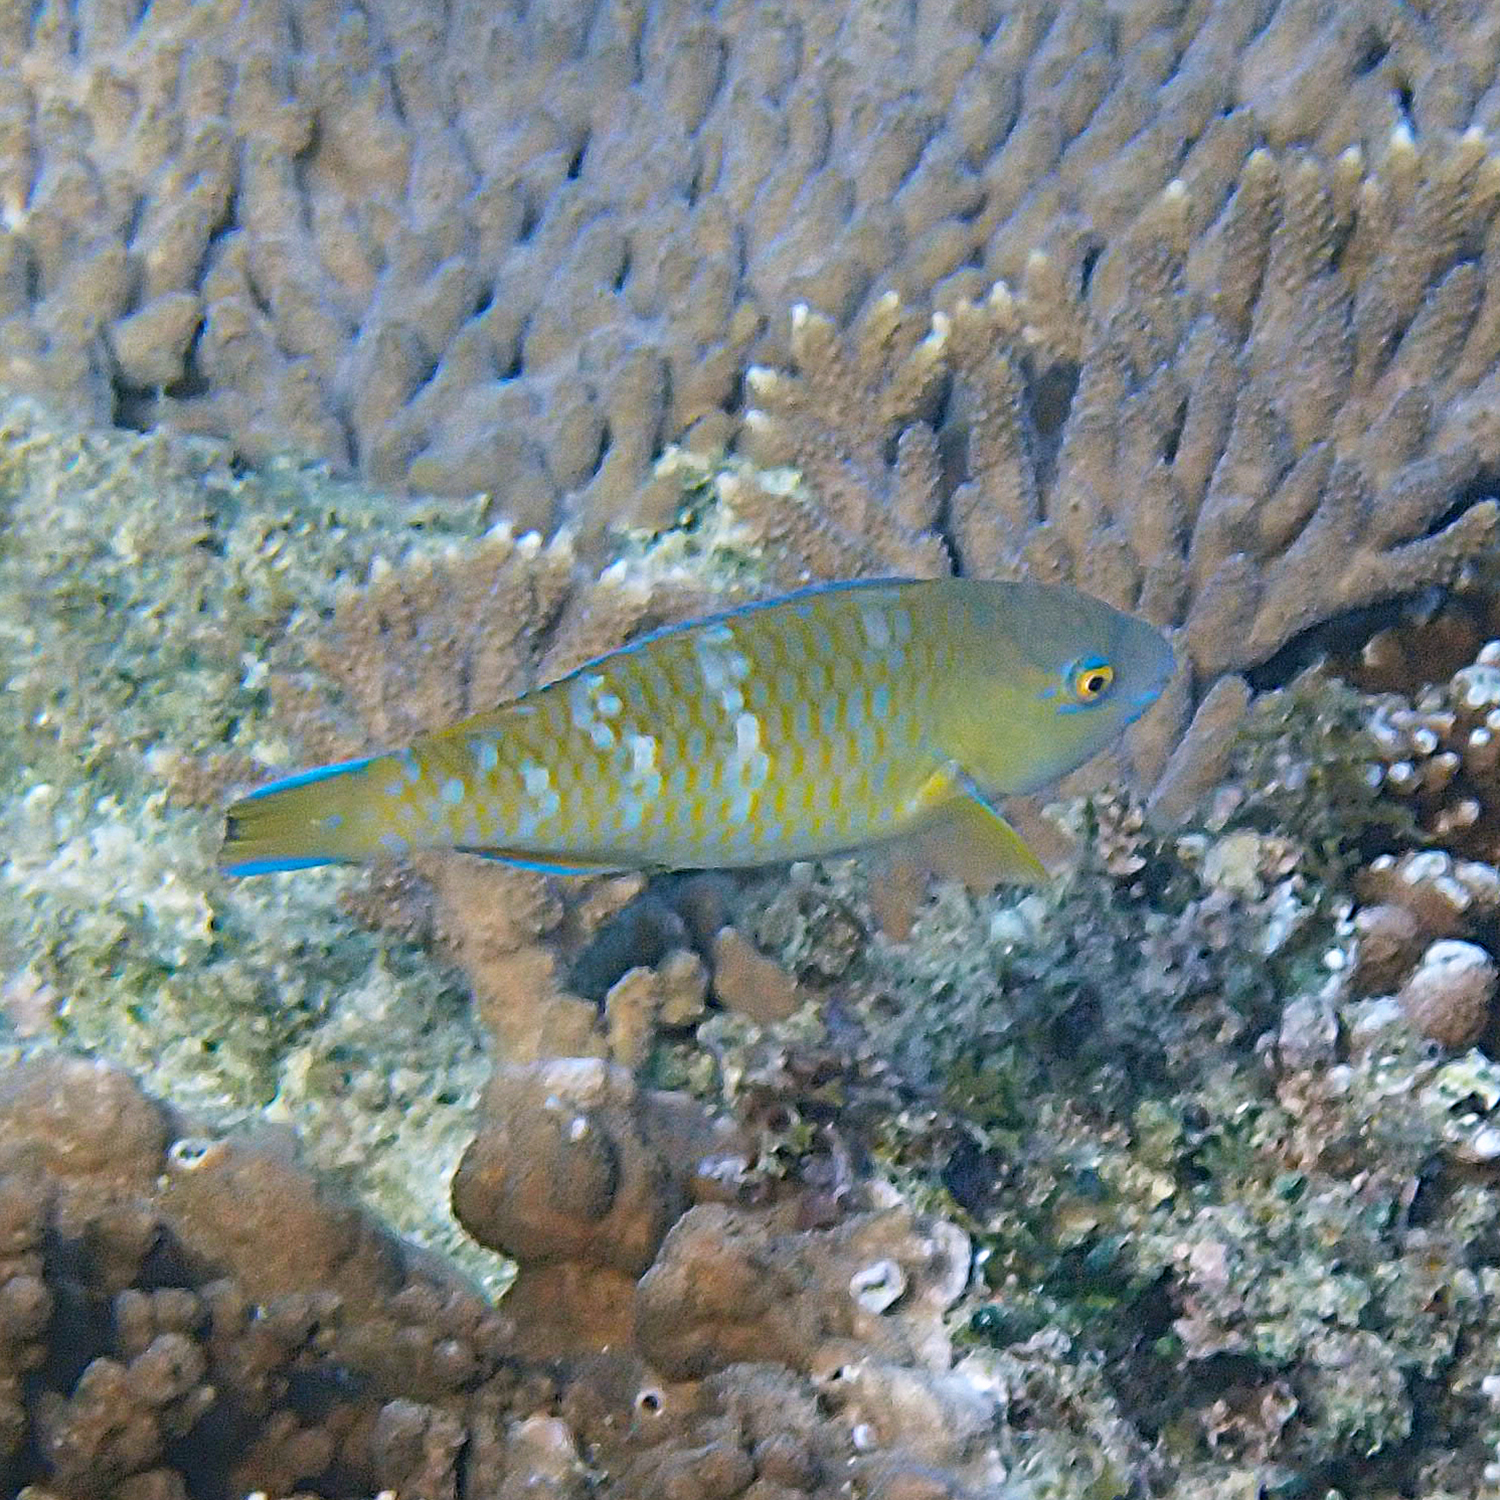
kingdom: Animalia
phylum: Chordata
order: Perciformes
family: Scaridae
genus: Scarus
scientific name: Scarus ghobban
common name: Blue-barred parrotfish
